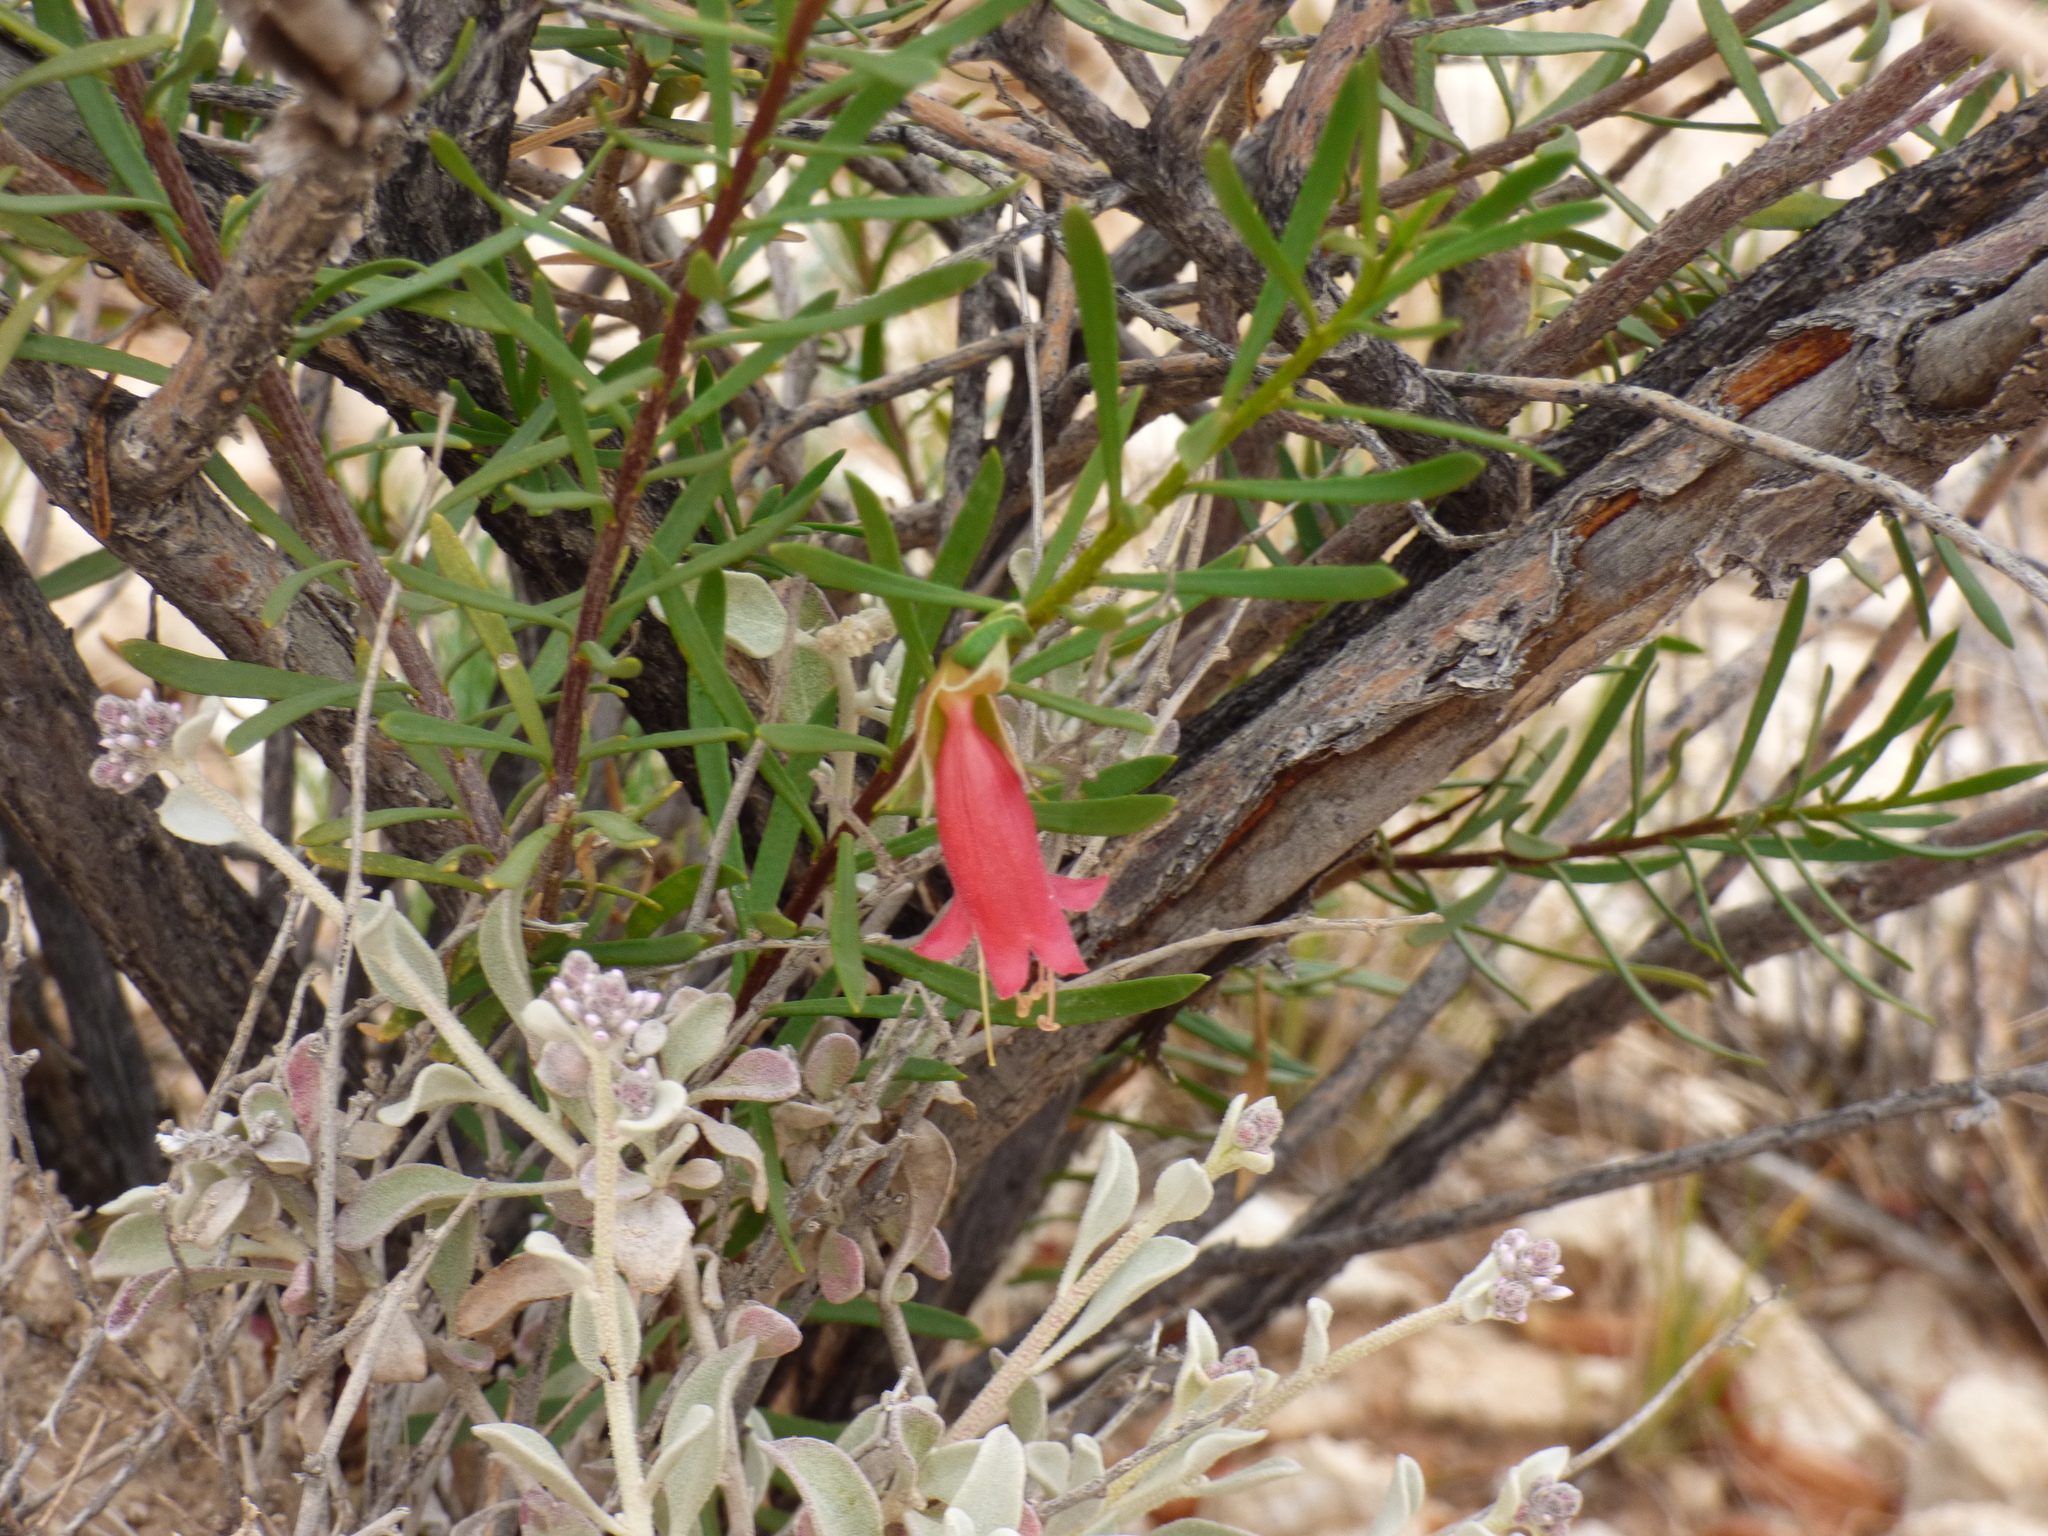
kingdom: Plantae
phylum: Tracheophyta
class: Magnoliopsida
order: Lamiales
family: Scrophulariaceae
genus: Eremophila
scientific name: Eremophila latrobei
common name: Crimson turkeybush
